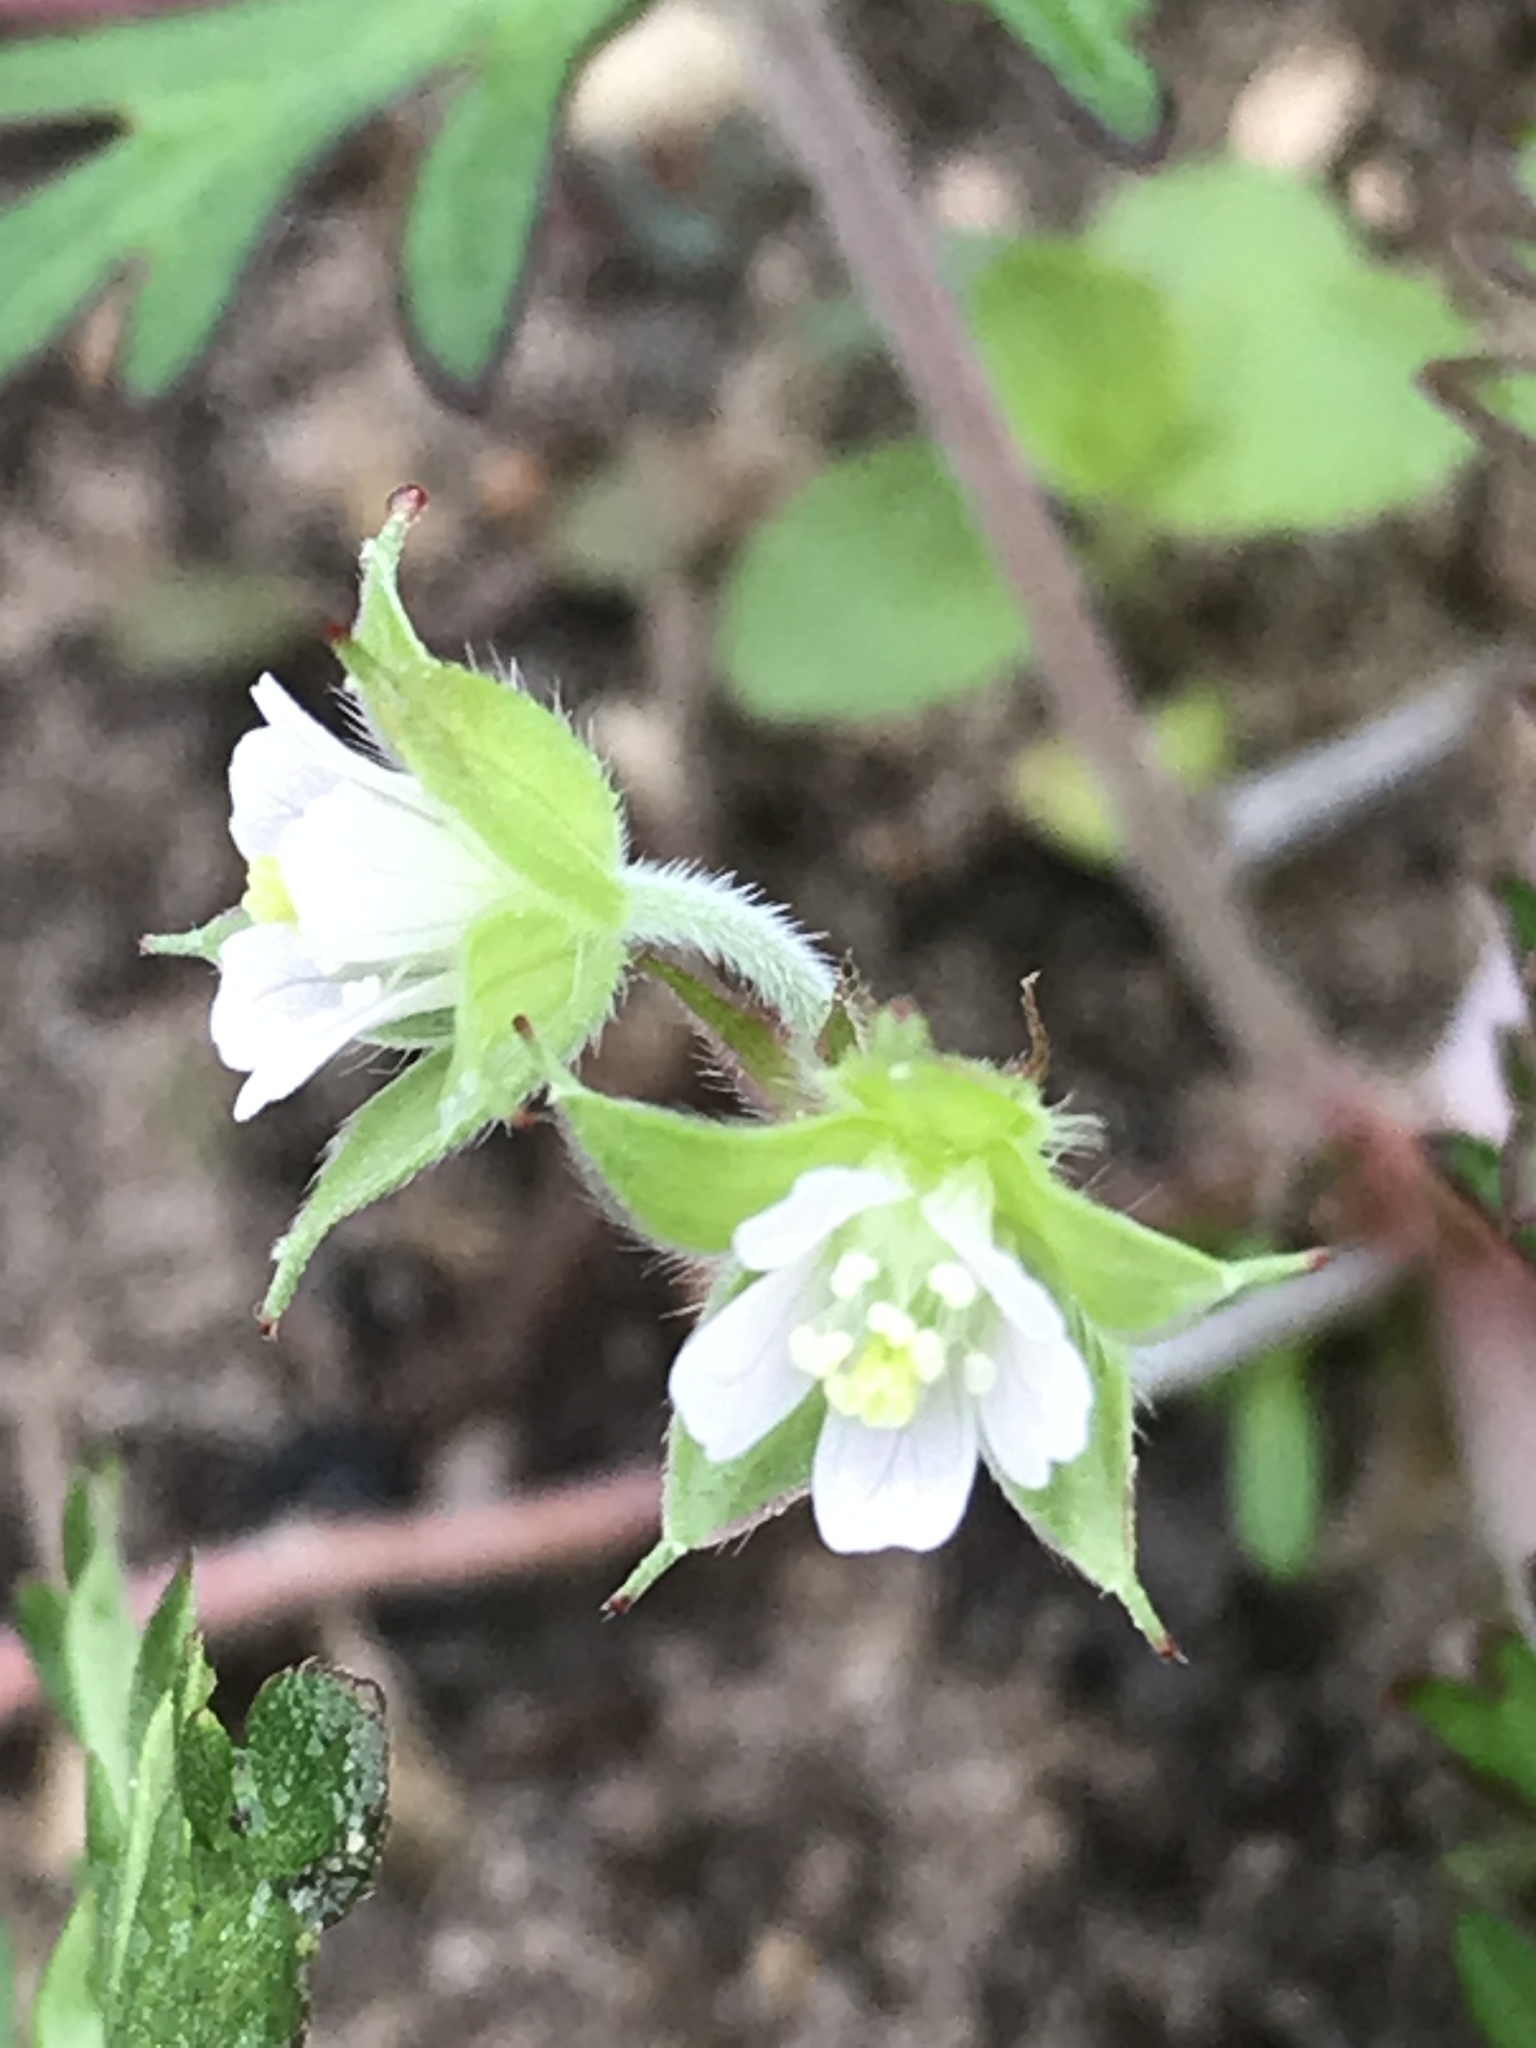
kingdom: Plantae
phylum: Tracheophyta
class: Magnoliopsida
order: Geraniales
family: Geraniaceae
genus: Geranium
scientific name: Geranium carolinianum
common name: Carolina crane's-bill
